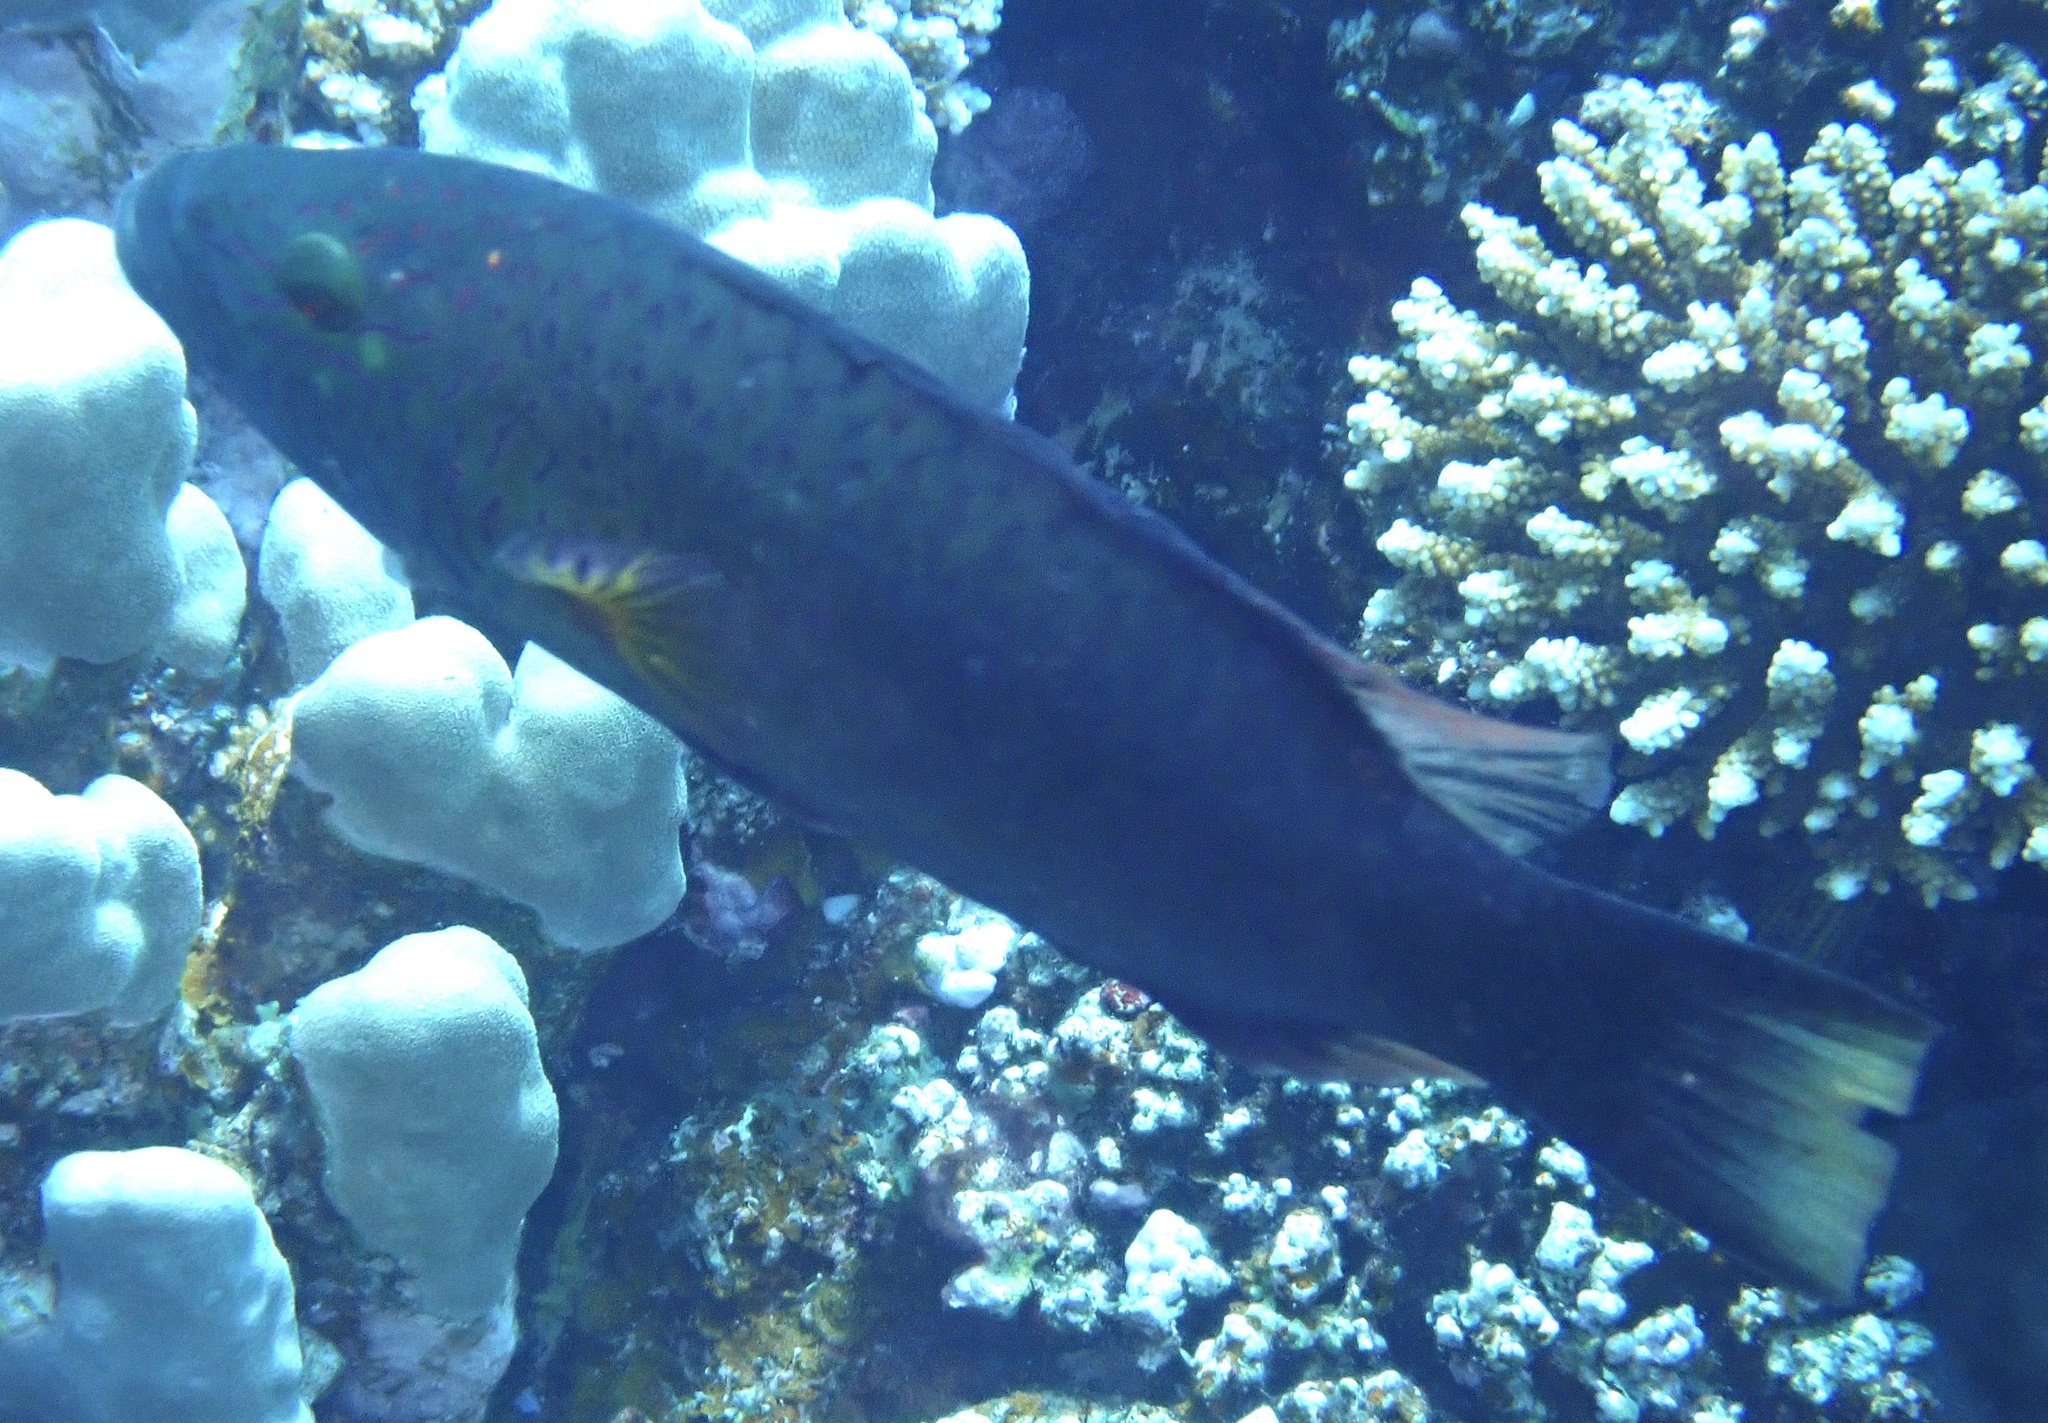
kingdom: Animalia
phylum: Chordata
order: Perciformes
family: Labridae
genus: Oxycheilinus
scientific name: Oxycheilinus digramma
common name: Bandcheek wrasse
